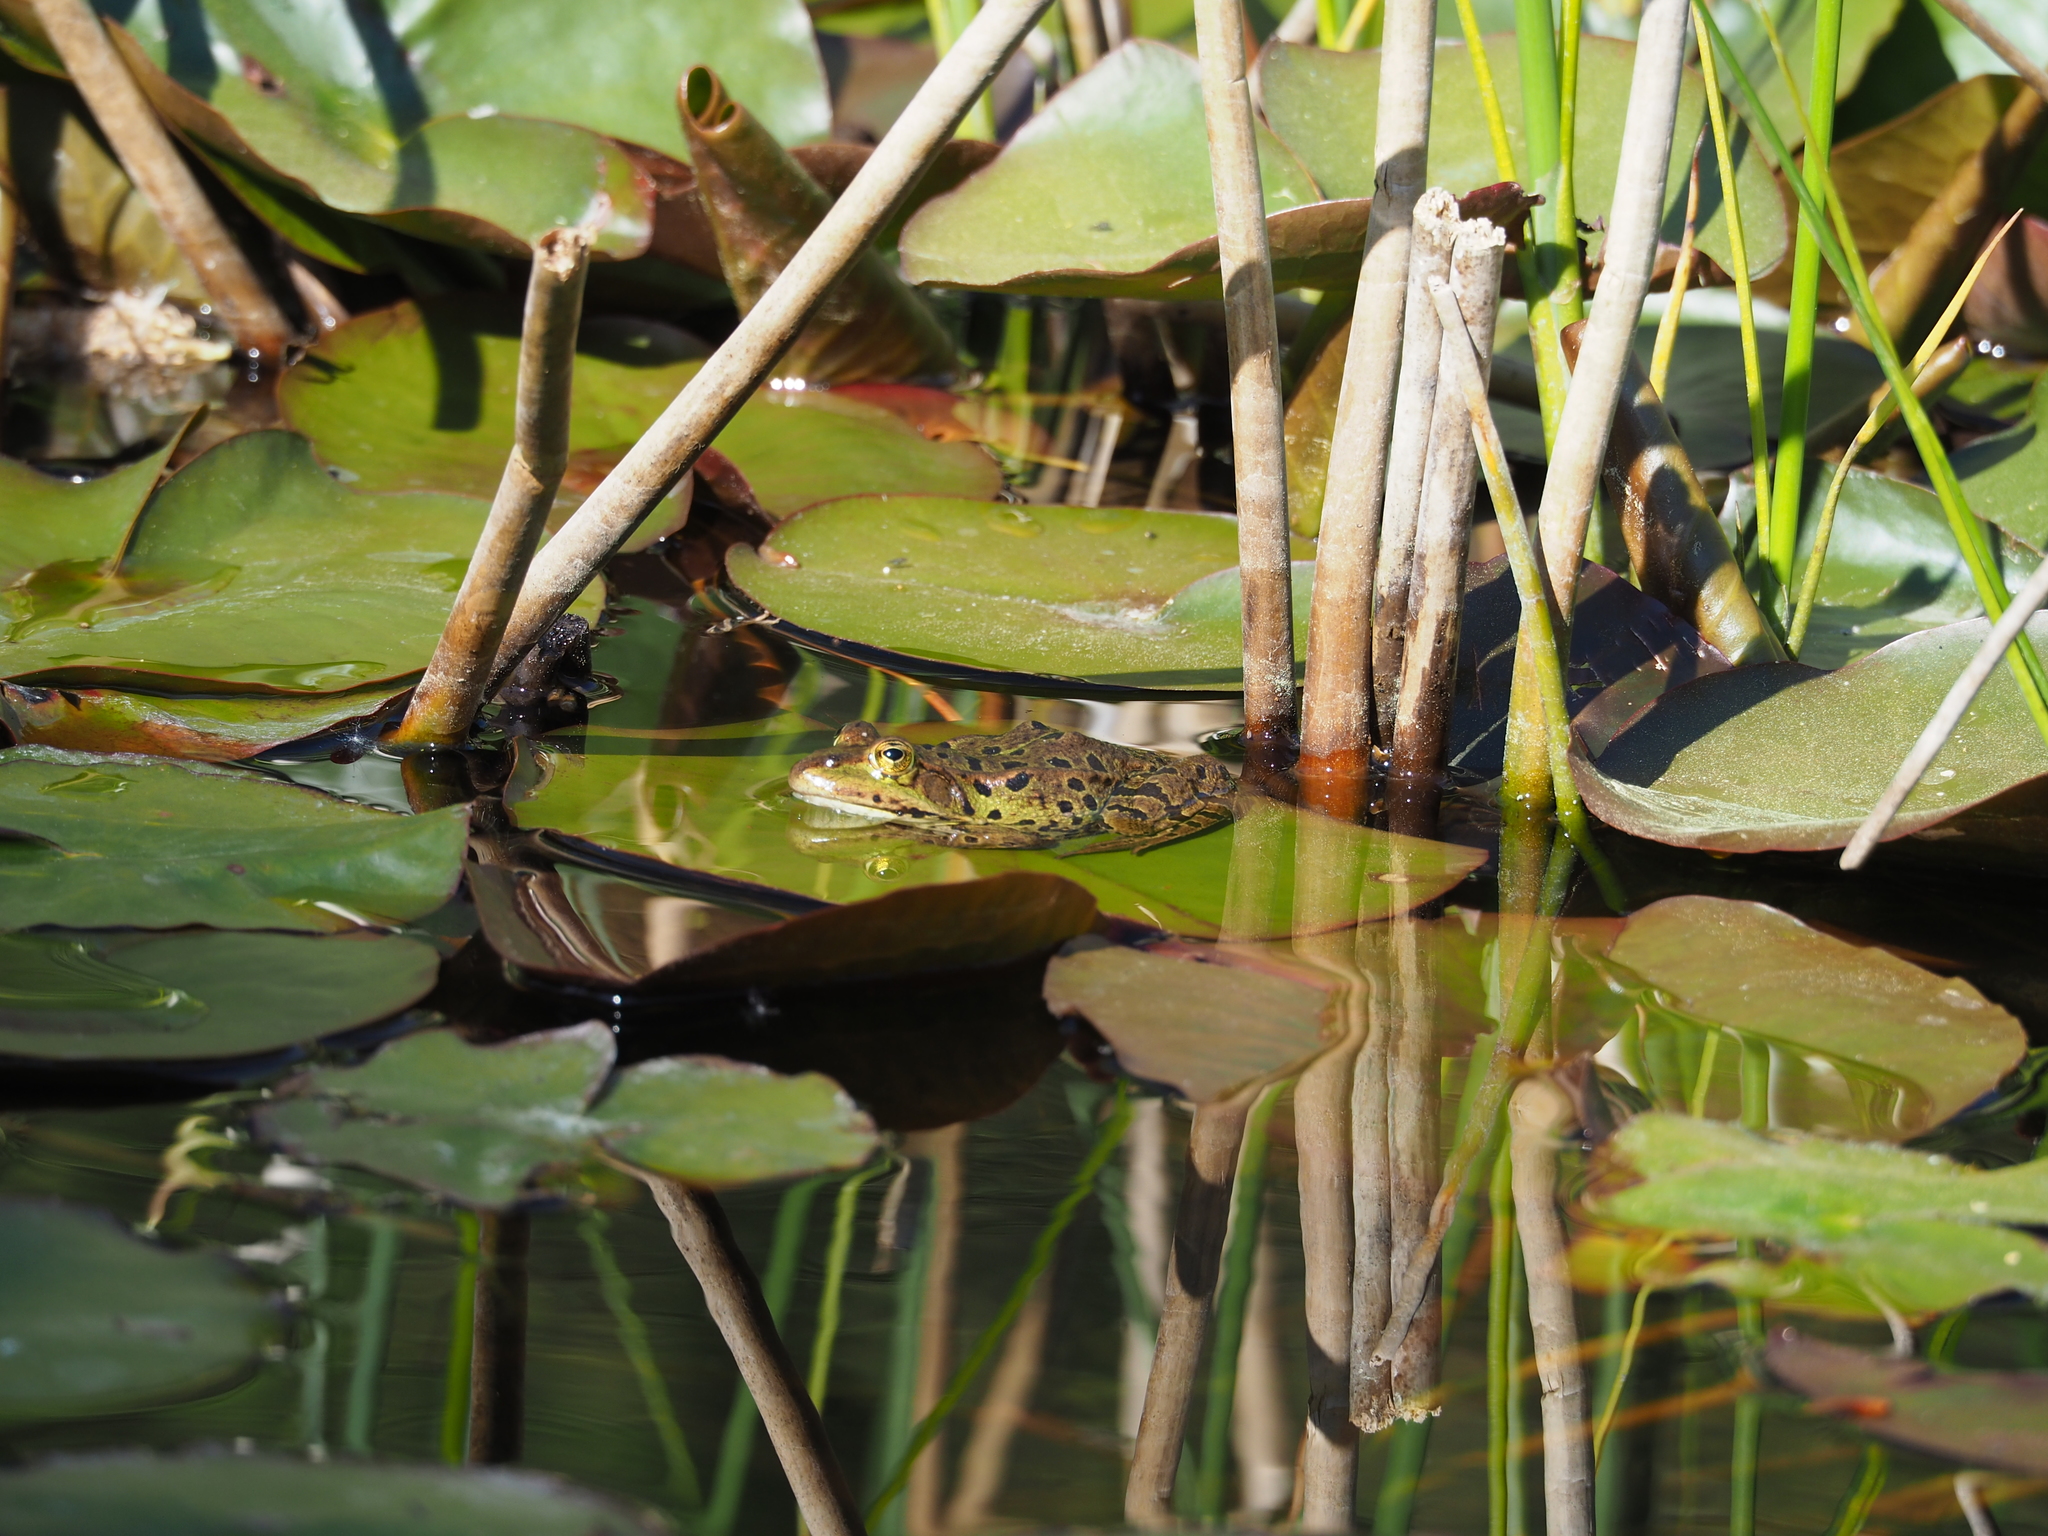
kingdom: Animalia
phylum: Chordata
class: Amphibia
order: Anura
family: Ranidae
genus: Pelophylax
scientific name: Pelophylax
